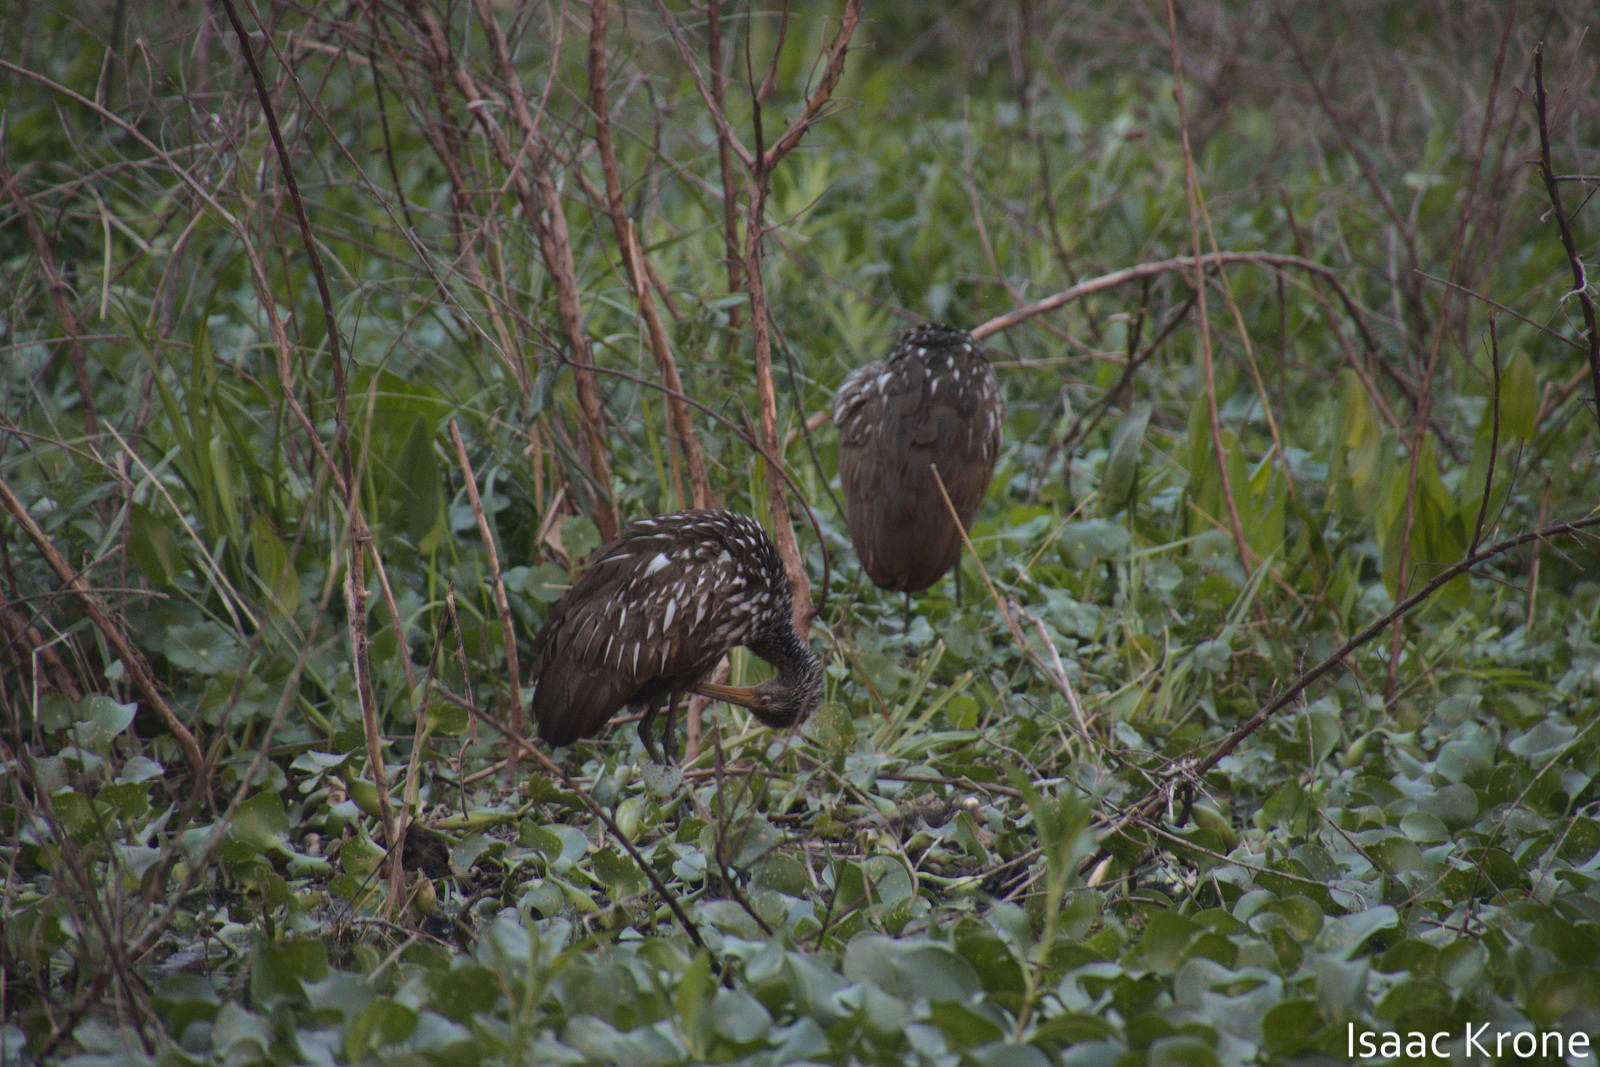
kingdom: Animalia
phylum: Chordata
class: Aves
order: Gruiformes
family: Aramidae
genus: Aramus
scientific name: Aramus guarauna
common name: Limpkin
